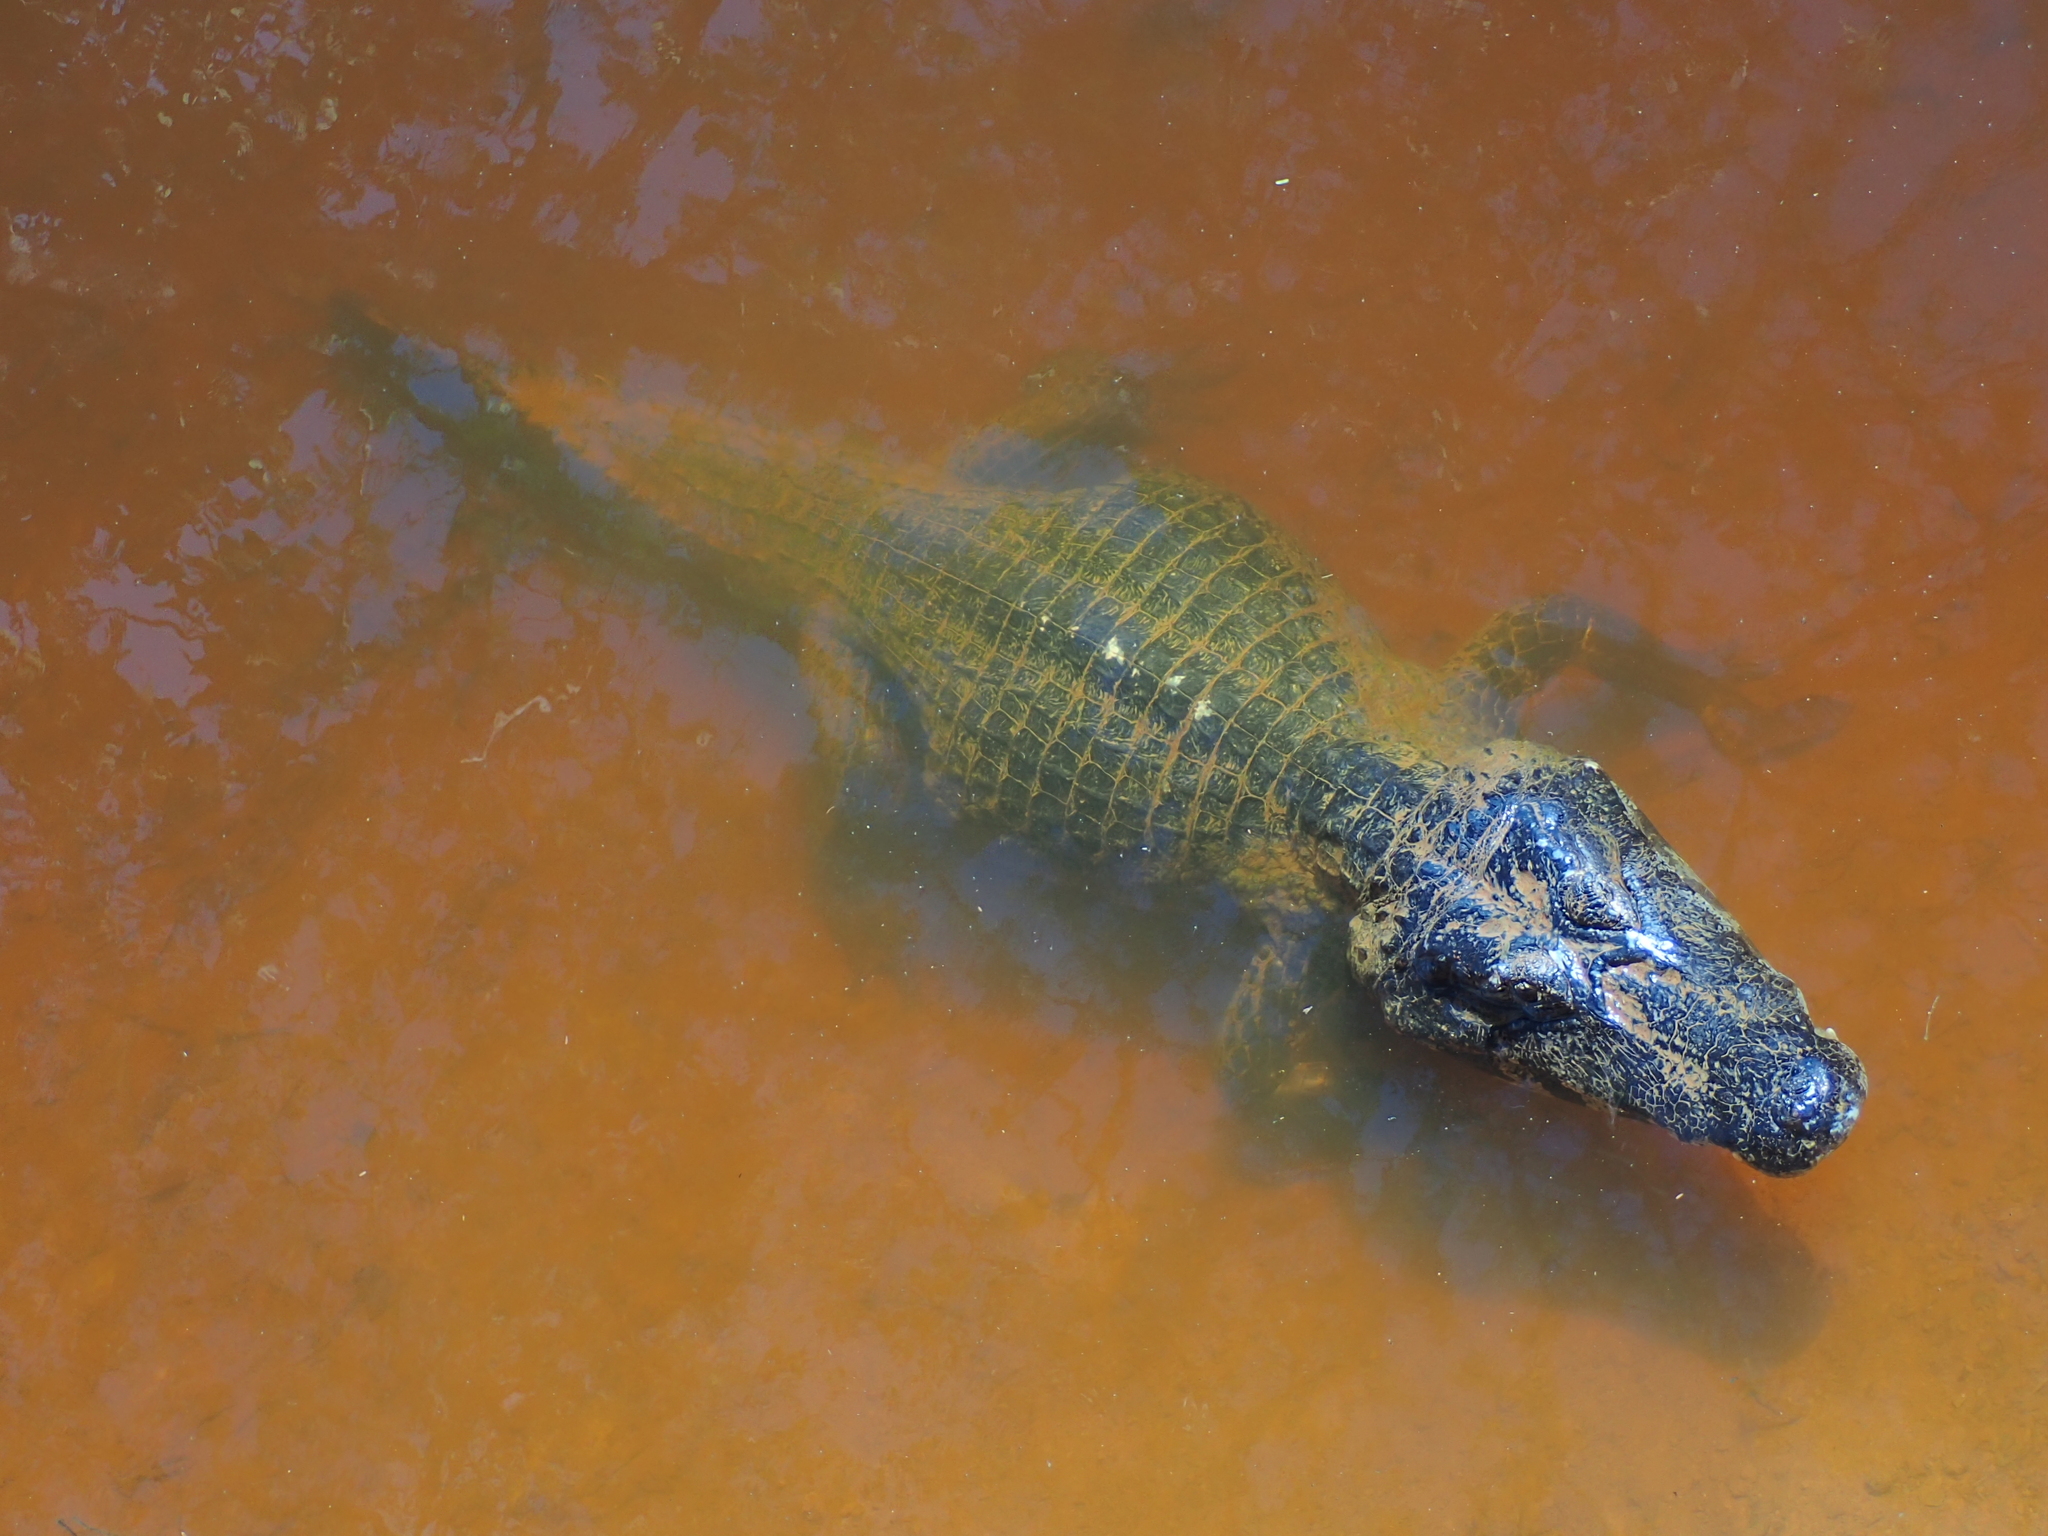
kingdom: Animalia
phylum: Chordata
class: Crocodylia
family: Alligatoridae
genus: Caiman
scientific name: Caiman yacare
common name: Yacare caiman
